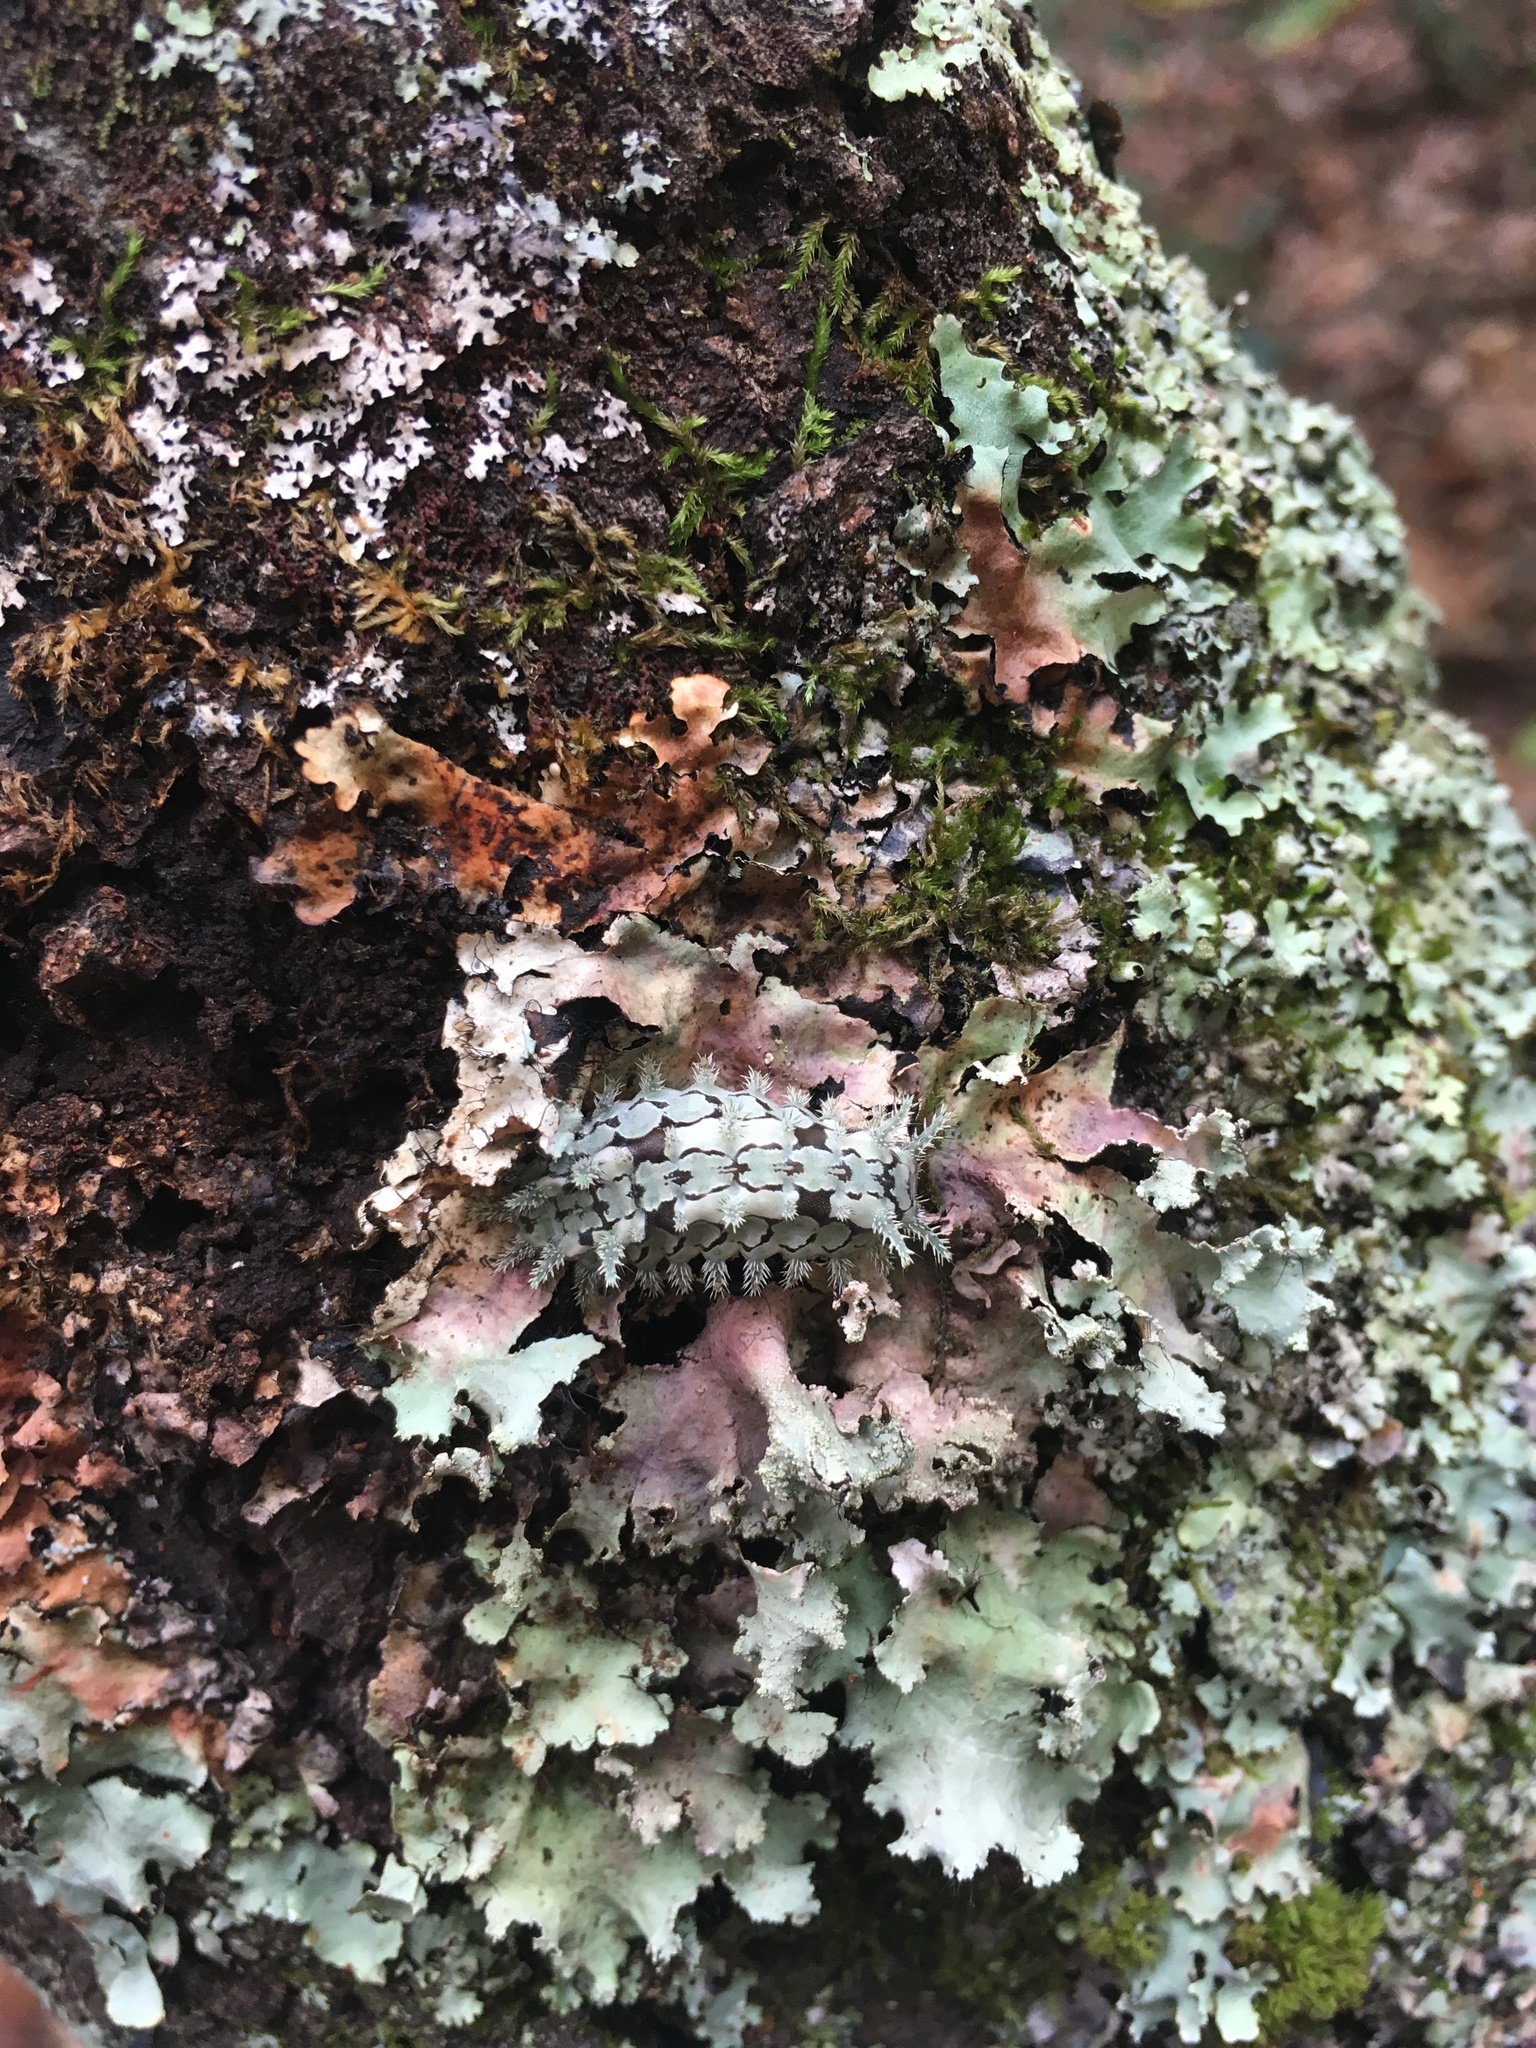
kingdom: Animalia
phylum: Arthropoda
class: Insecta
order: Lepidoptera
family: Limacodidae
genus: Euclea
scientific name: Euclea delphinii
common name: Spiny oak-slug moth
